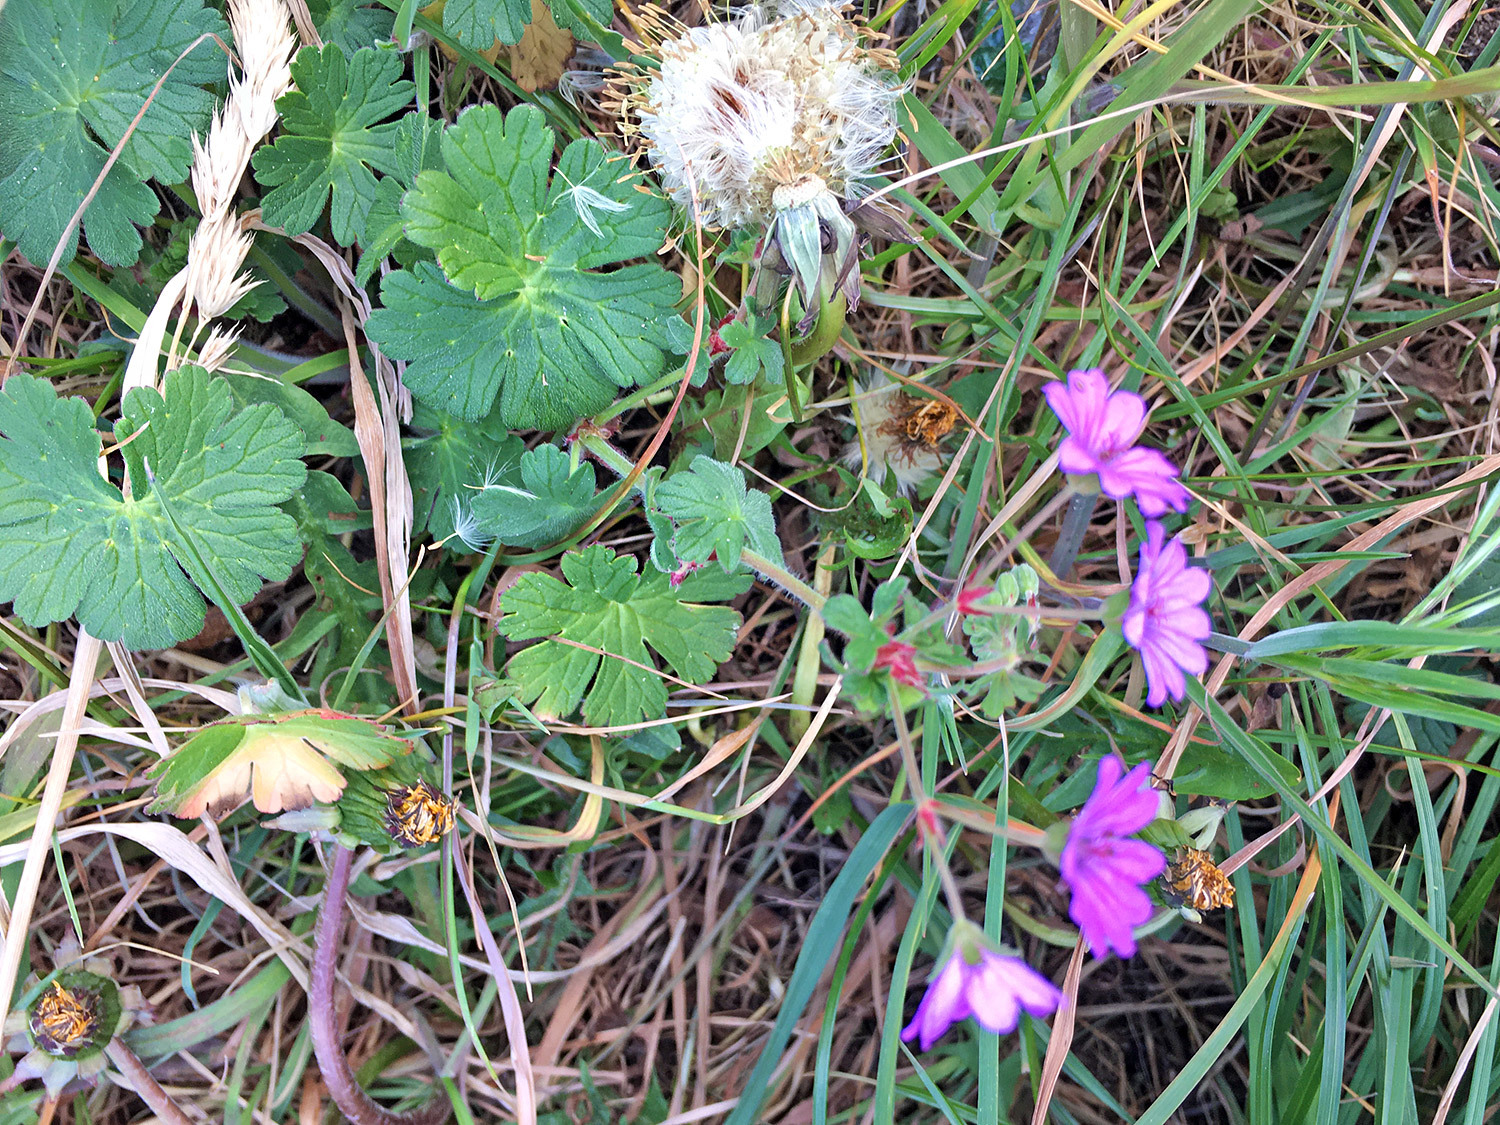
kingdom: Plantae
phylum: Tracheophyta
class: Magnoliopsida
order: Geraniales
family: Geraniaceae
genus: Geranium
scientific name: Geranium pyrenaicum
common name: Hedgerow crane's-bill
